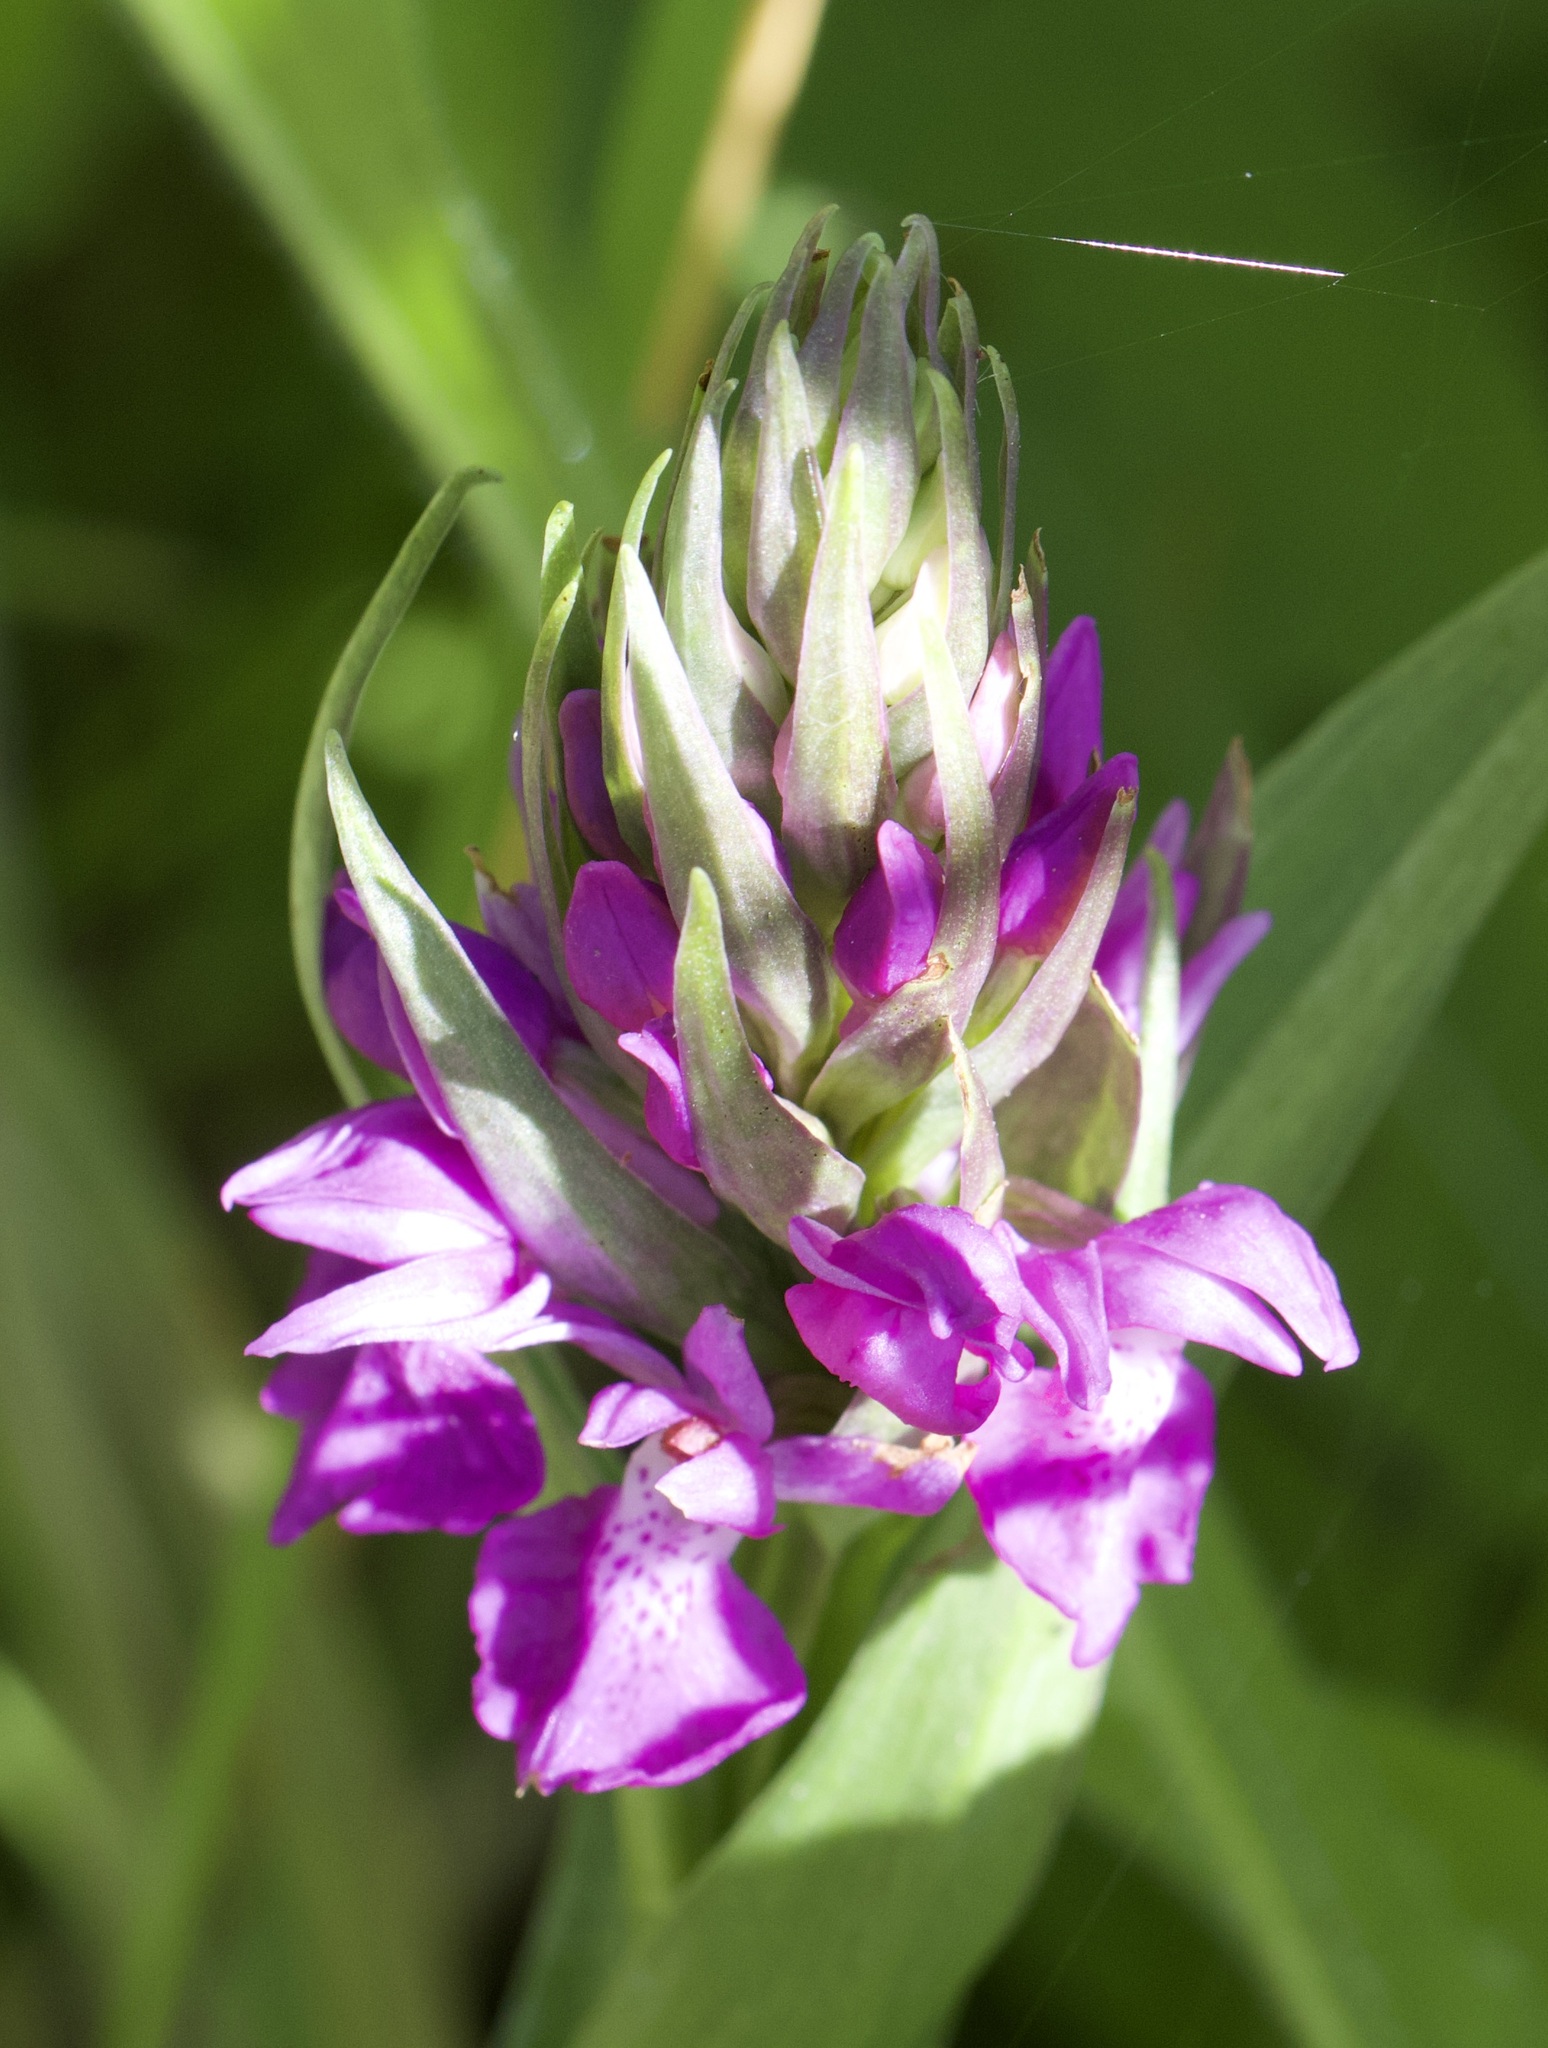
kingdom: Plantae
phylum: Tracheophyta
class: Liliopsida
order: Asparagales
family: Orchidaceae
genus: Dactylorhiza
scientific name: Dactylorhiza majalis
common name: Marsh orchid
